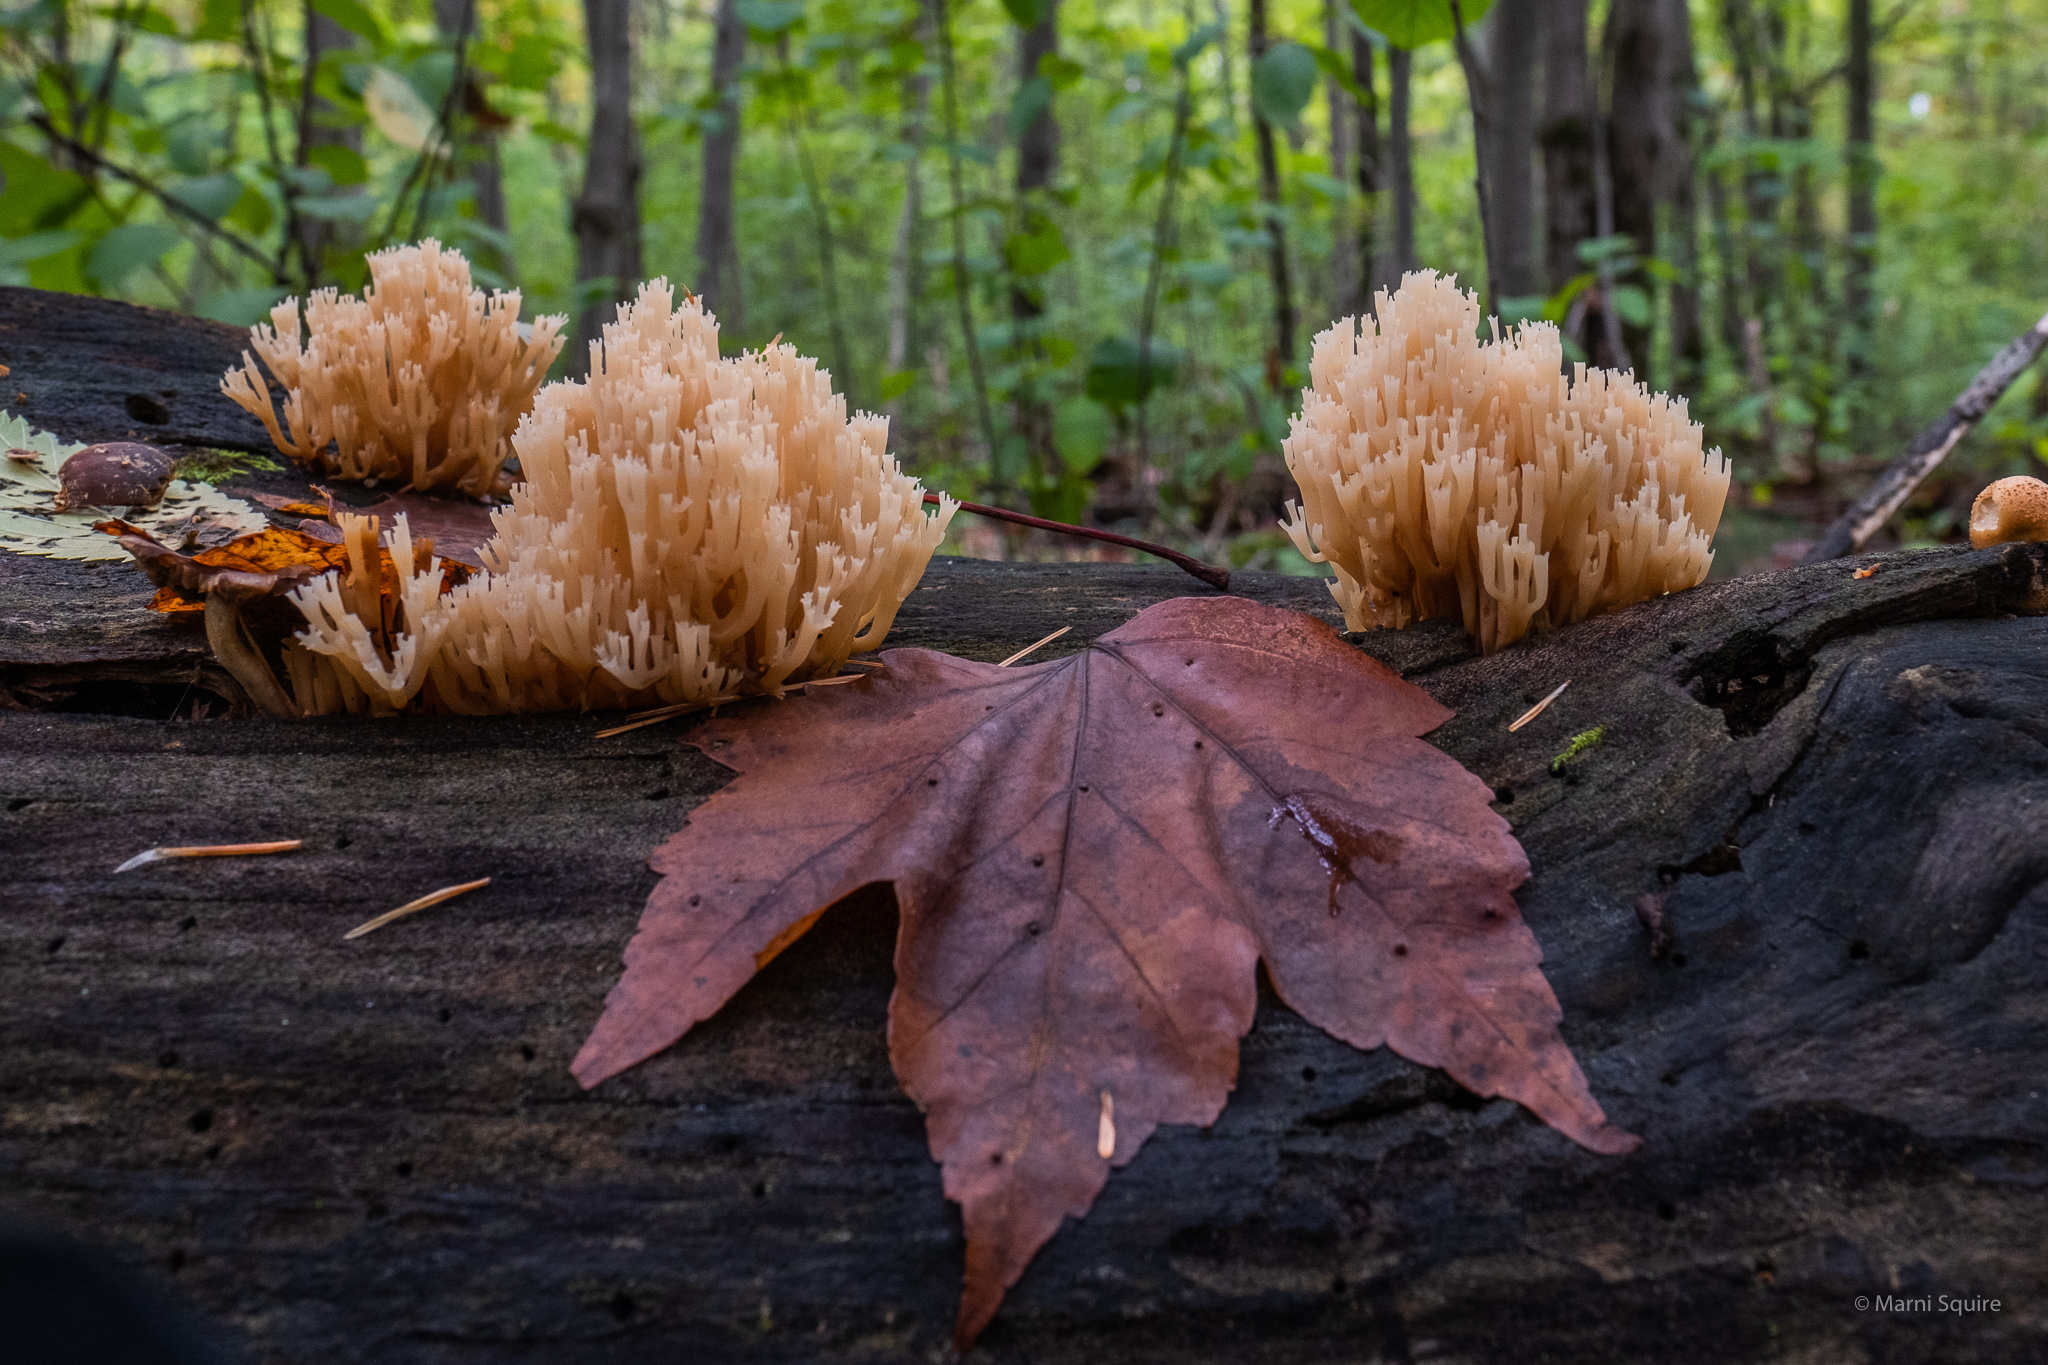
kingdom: Fungi
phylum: Basidiomycota
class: Agaricomycetes
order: Russulales
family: Auriscalpiaceae
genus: Artomyces
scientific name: Artomyces pyxidatus
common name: Crown-tipped coral fungus
